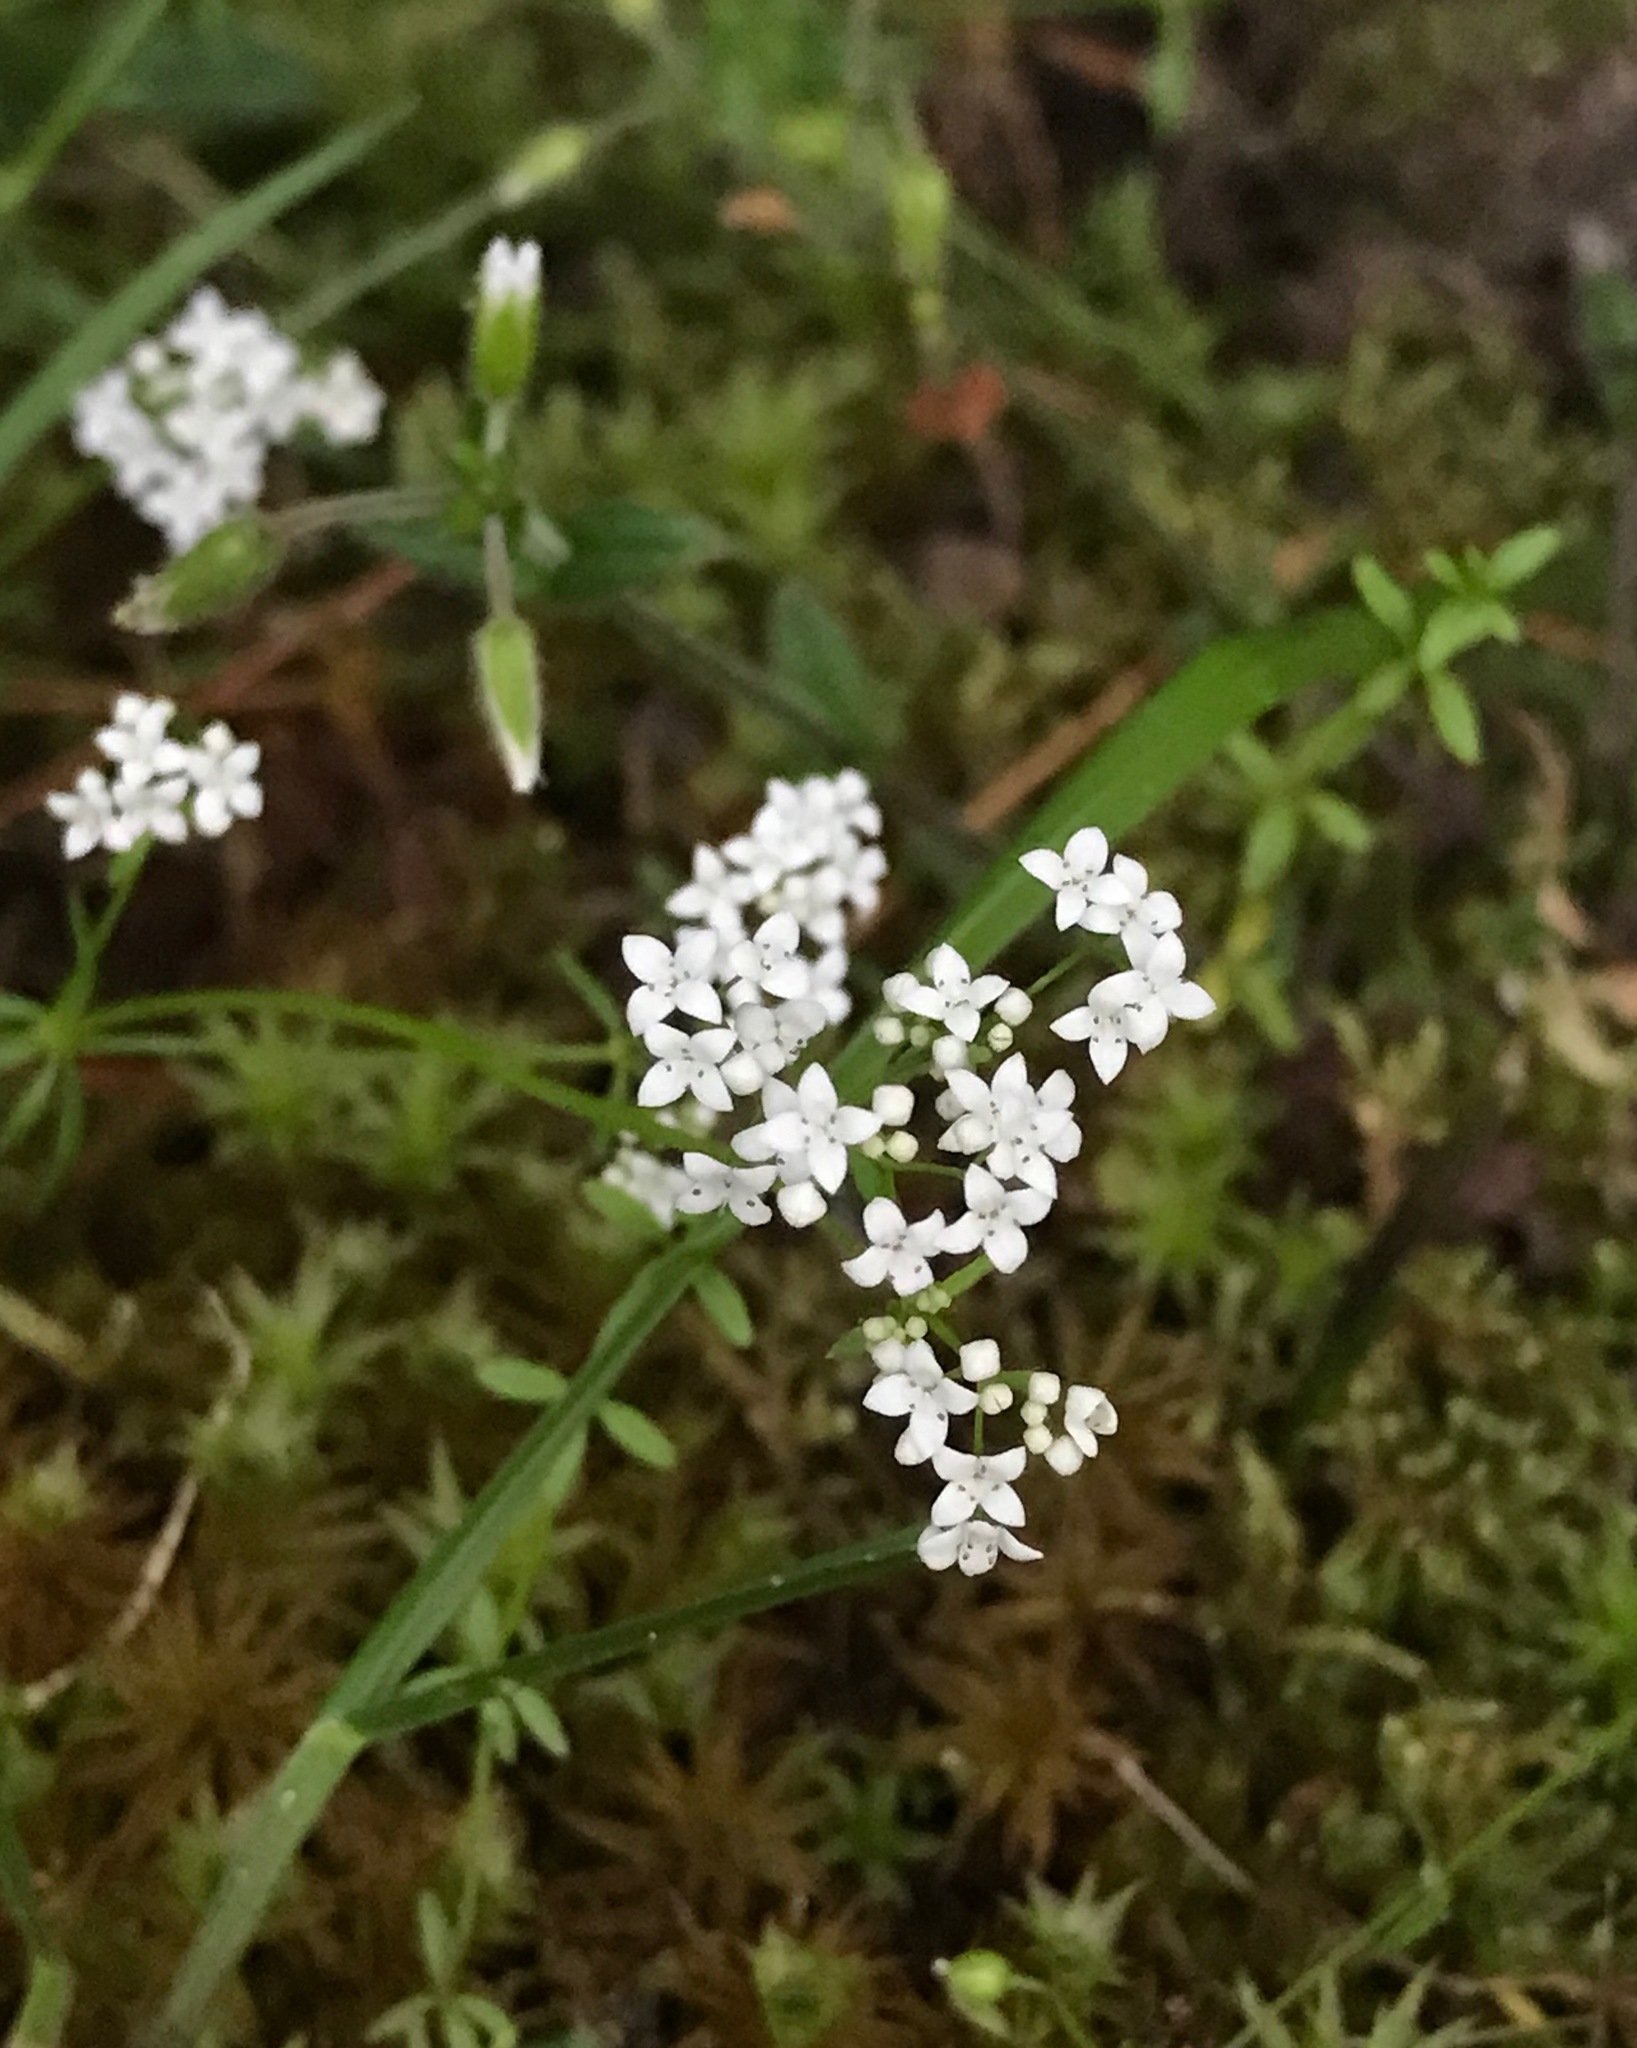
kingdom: Plantae
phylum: Tracheophyta
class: Magnoliopsida
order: Gentianales
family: Rubiaceae
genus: Galium
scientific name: Galium palustre
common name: Common marsh-bedstraw
